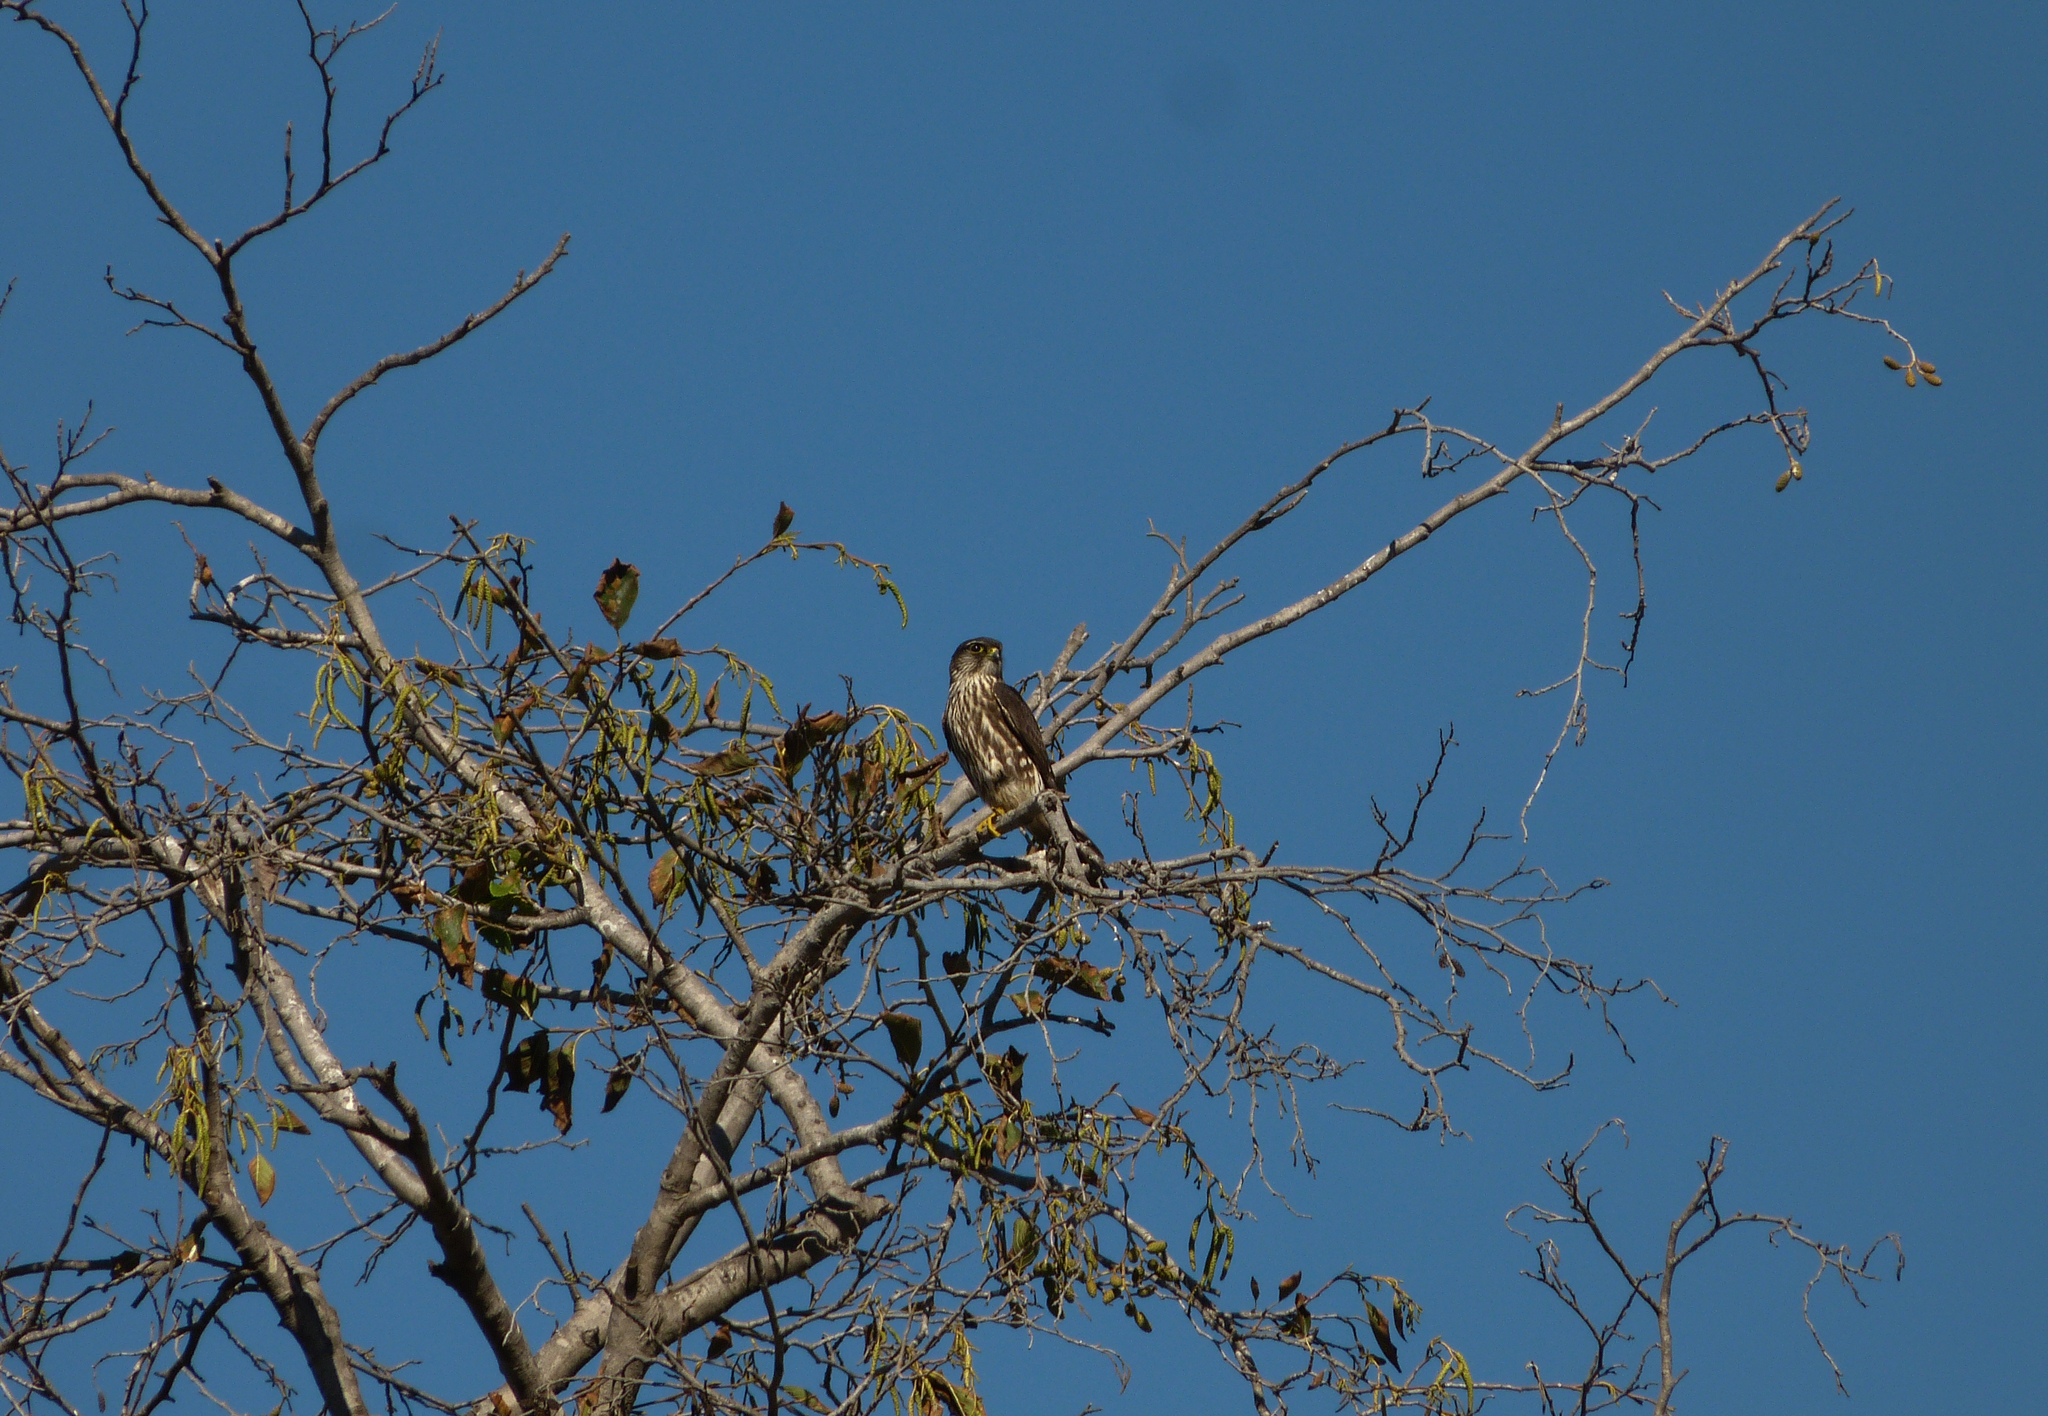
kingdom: Animalia
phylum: Chordata
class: Aves
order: Falconiformes
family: Falconidae
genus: Falco
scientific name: Falco columbarius
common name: Merlin
